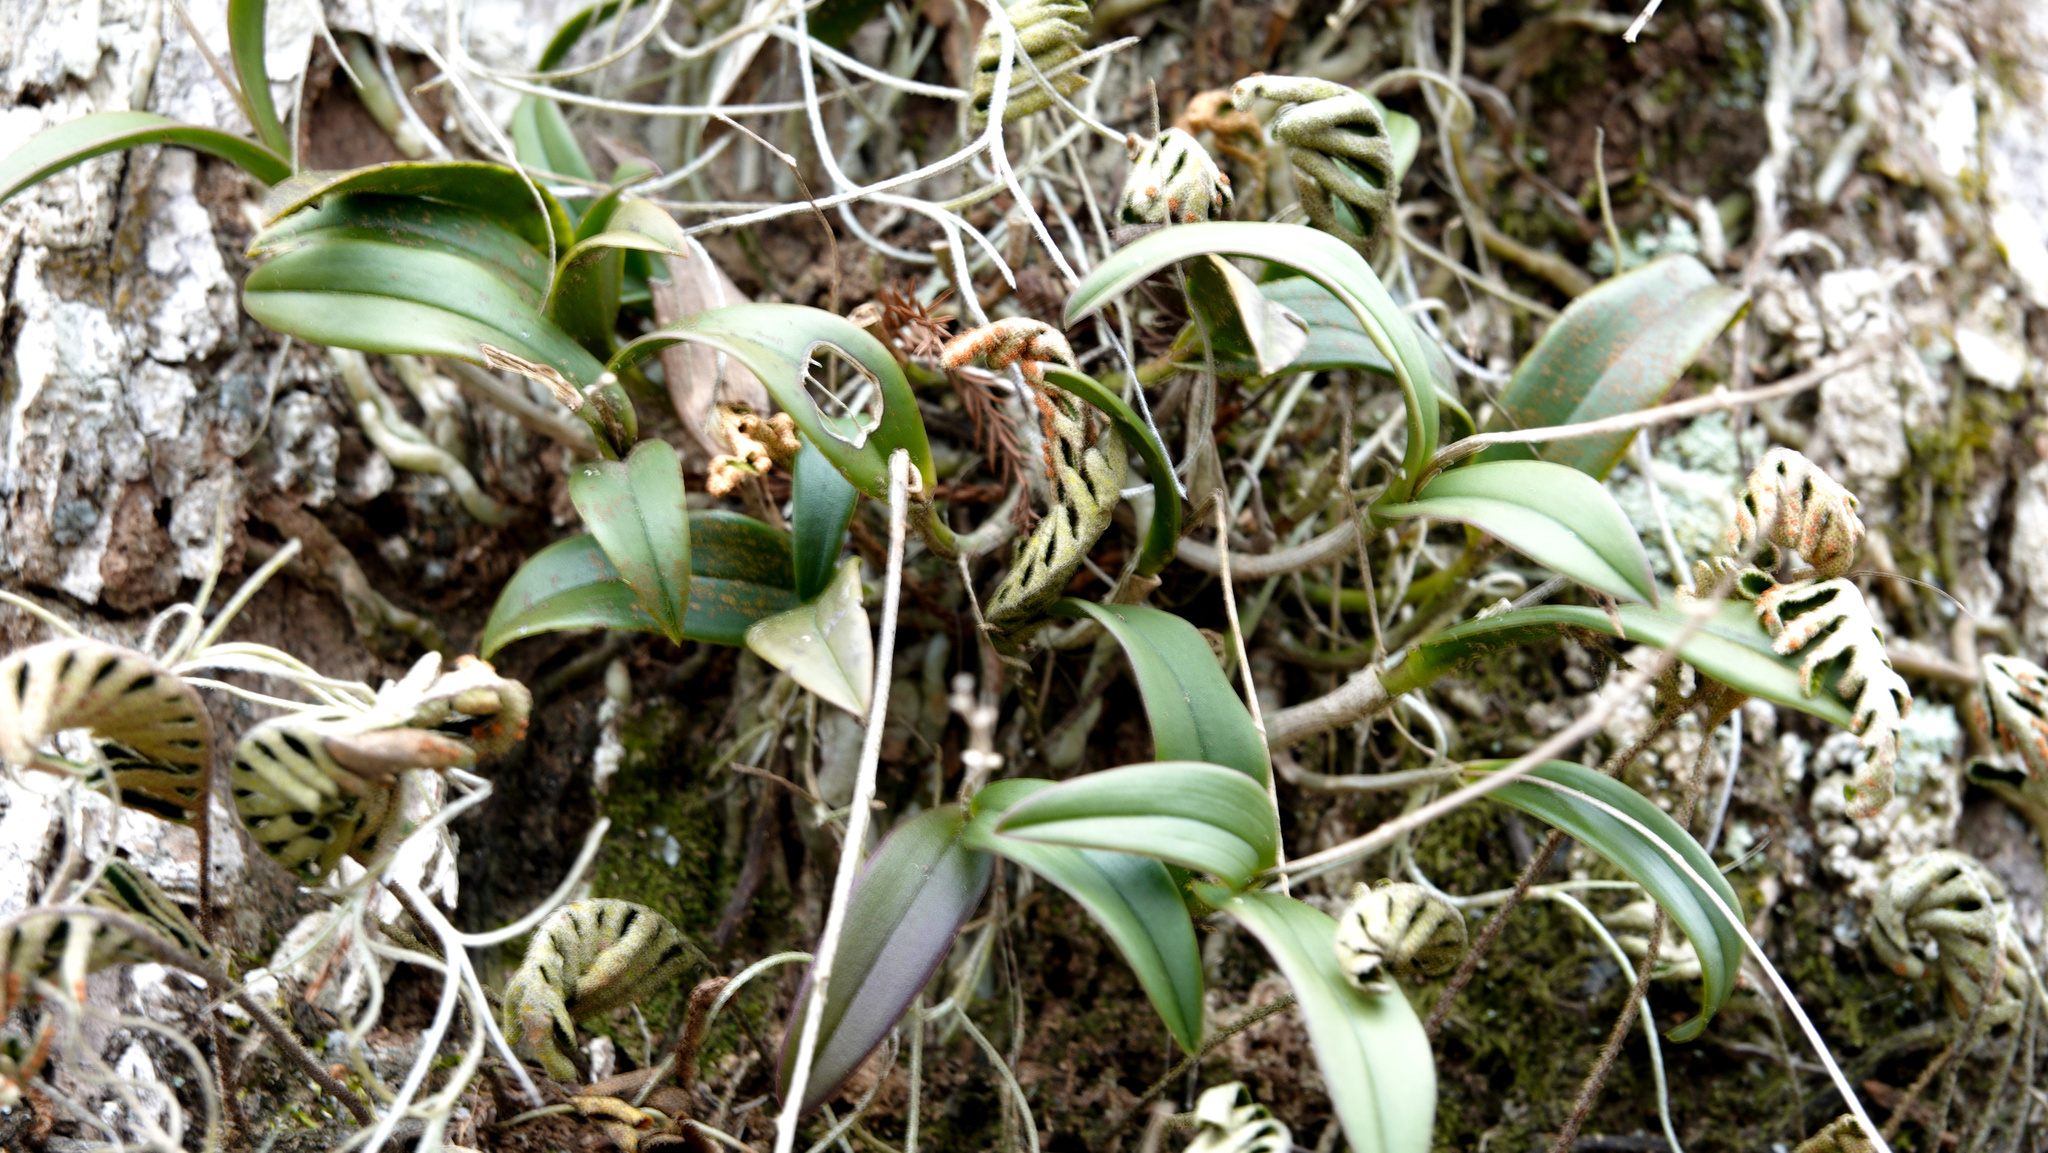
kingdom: Plantae
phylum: Tracheophyta
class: Liliopsida
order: Asparagales
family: Orchidaceae
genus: Epidendrum
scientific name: Epidendrum conopseum
